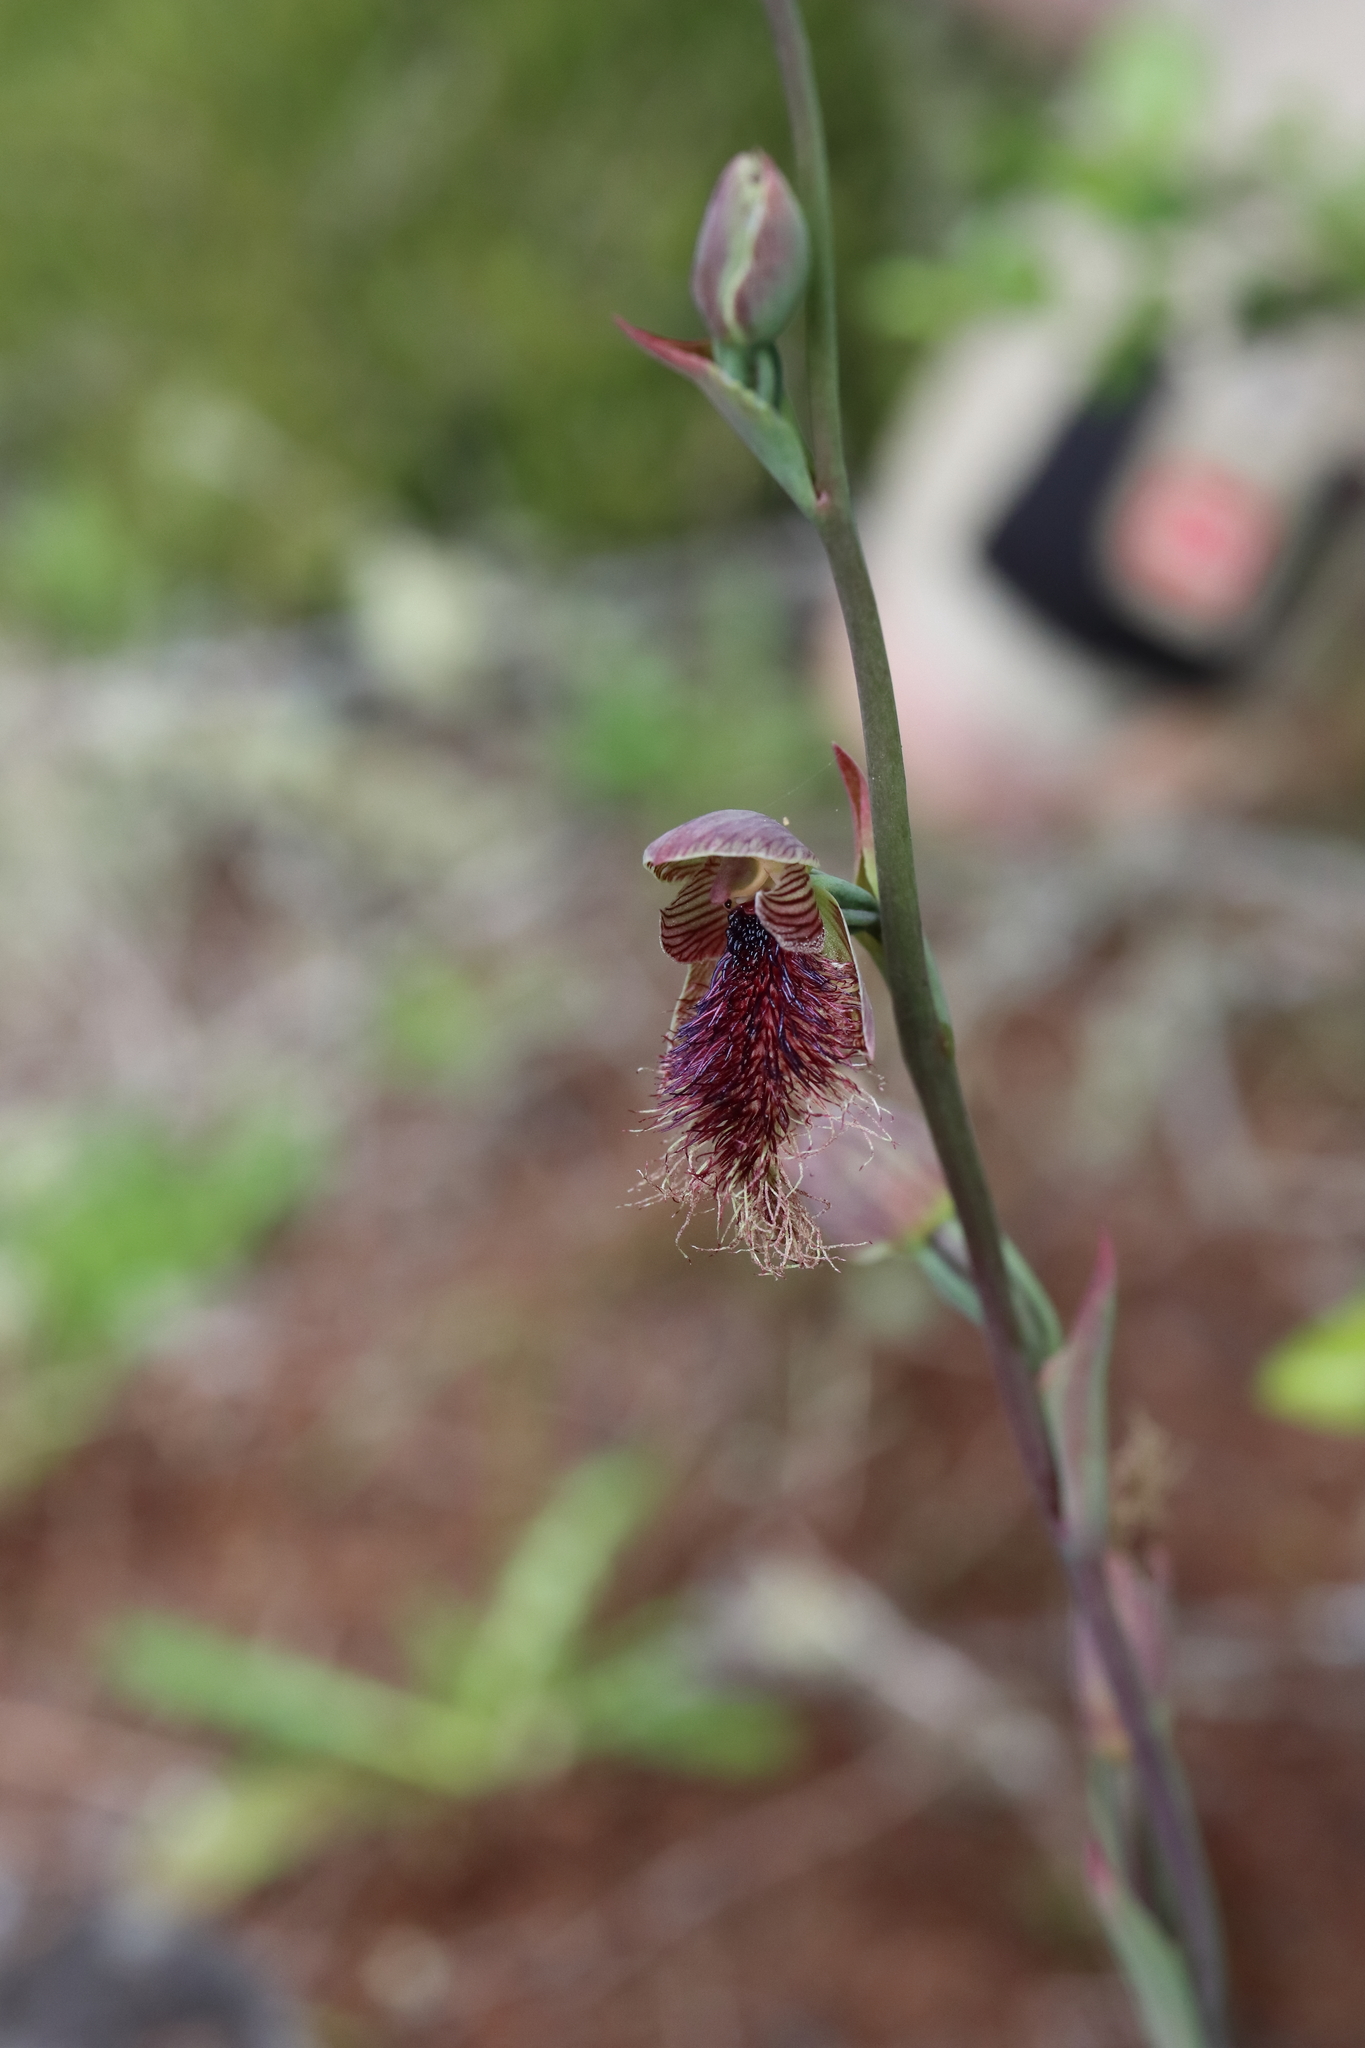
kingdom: Plantae
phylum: Tracheophyta
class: Liliopsida
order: Asparagales
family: Orchidaceae
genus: Calochilus
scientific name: Calochilus robertsonii
